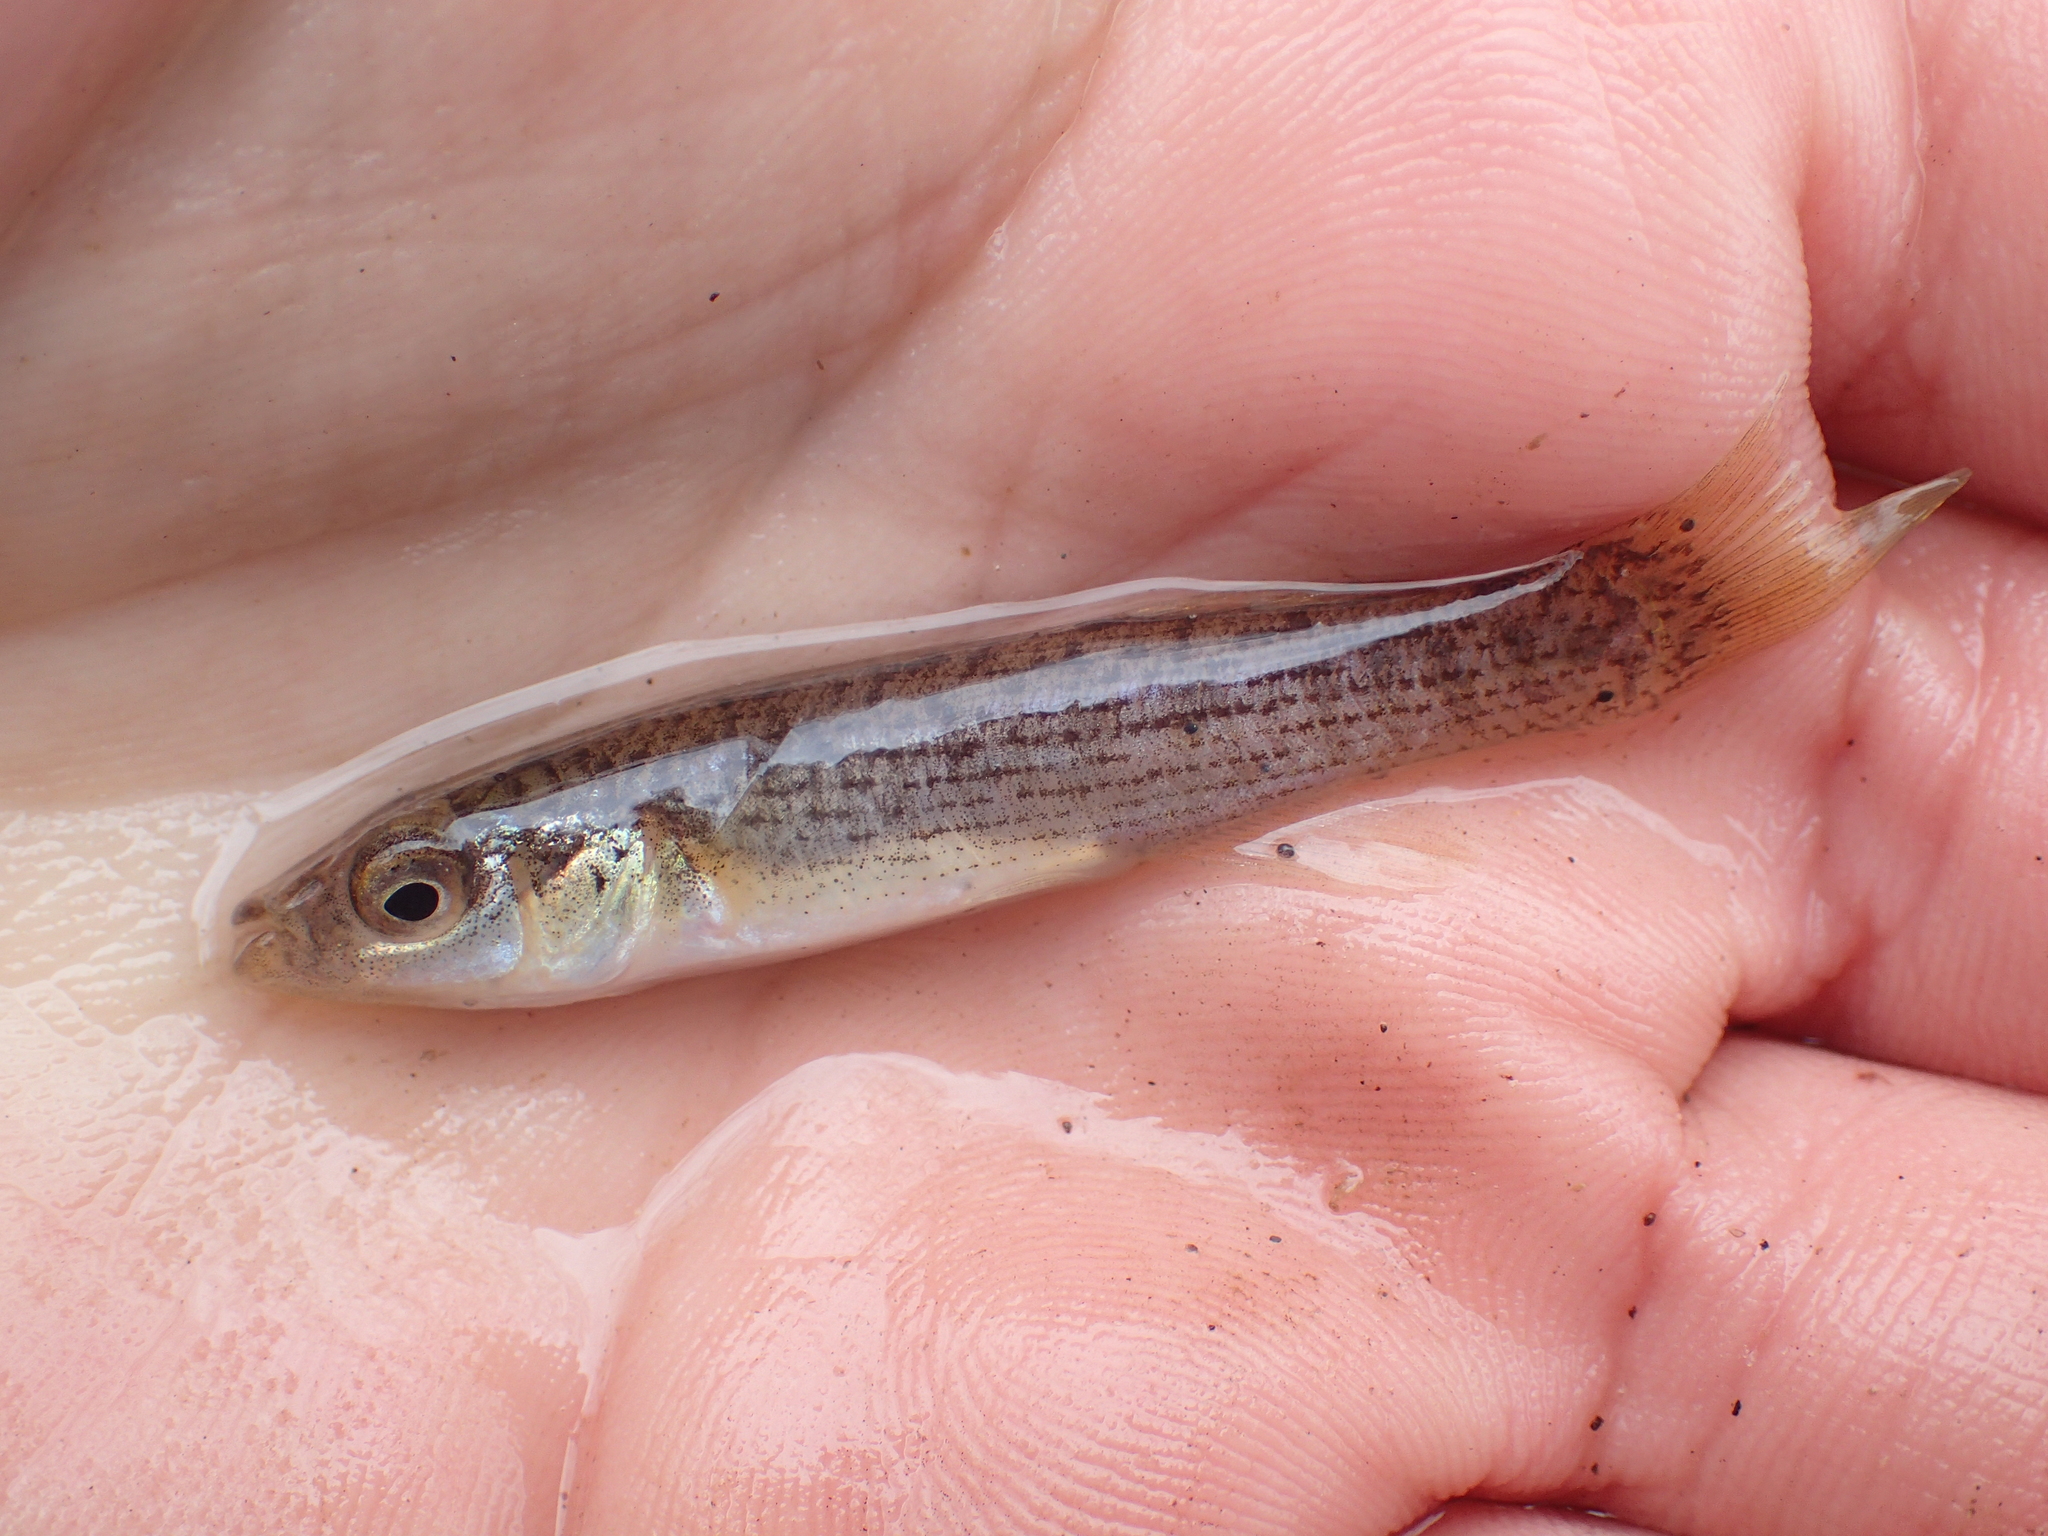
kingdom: Animalia
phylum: Chordata
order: Cyprinodontiformes
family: Fundulidae
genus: Fundulus
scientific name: Fundulus catenatus
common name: Northern studfish
